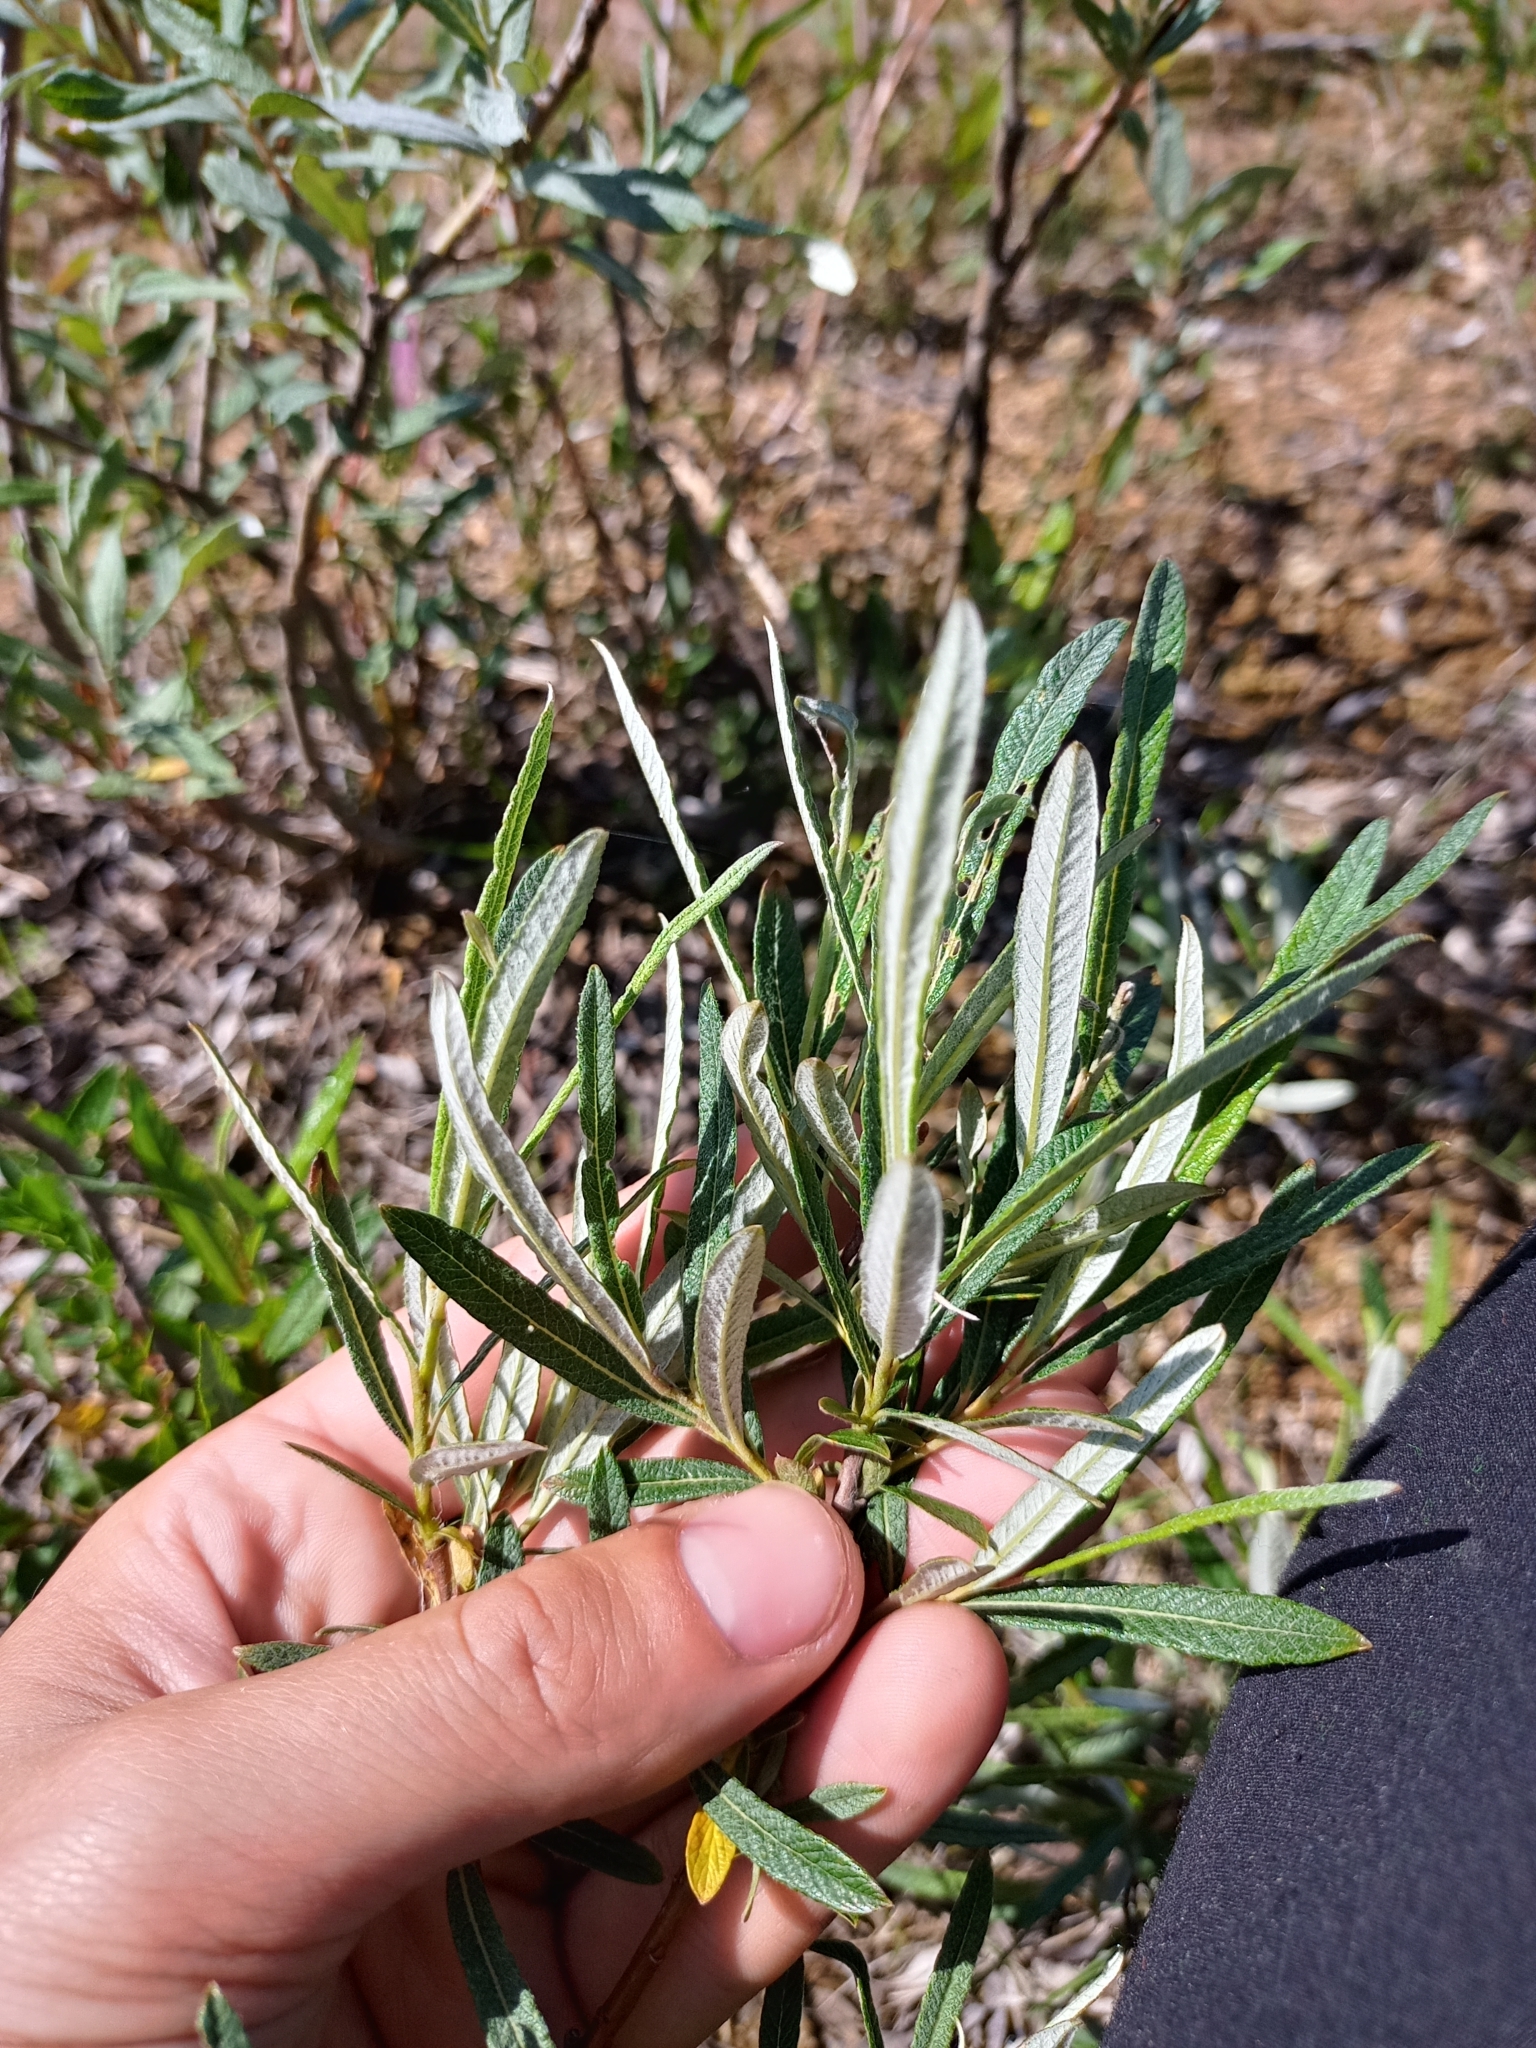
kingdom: Plantae
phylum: Tracheophyta
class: Magnoliopsida
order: Malpighiales
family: Salicaceae
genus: Salix
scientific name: Salix candida
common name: Hoary willow
